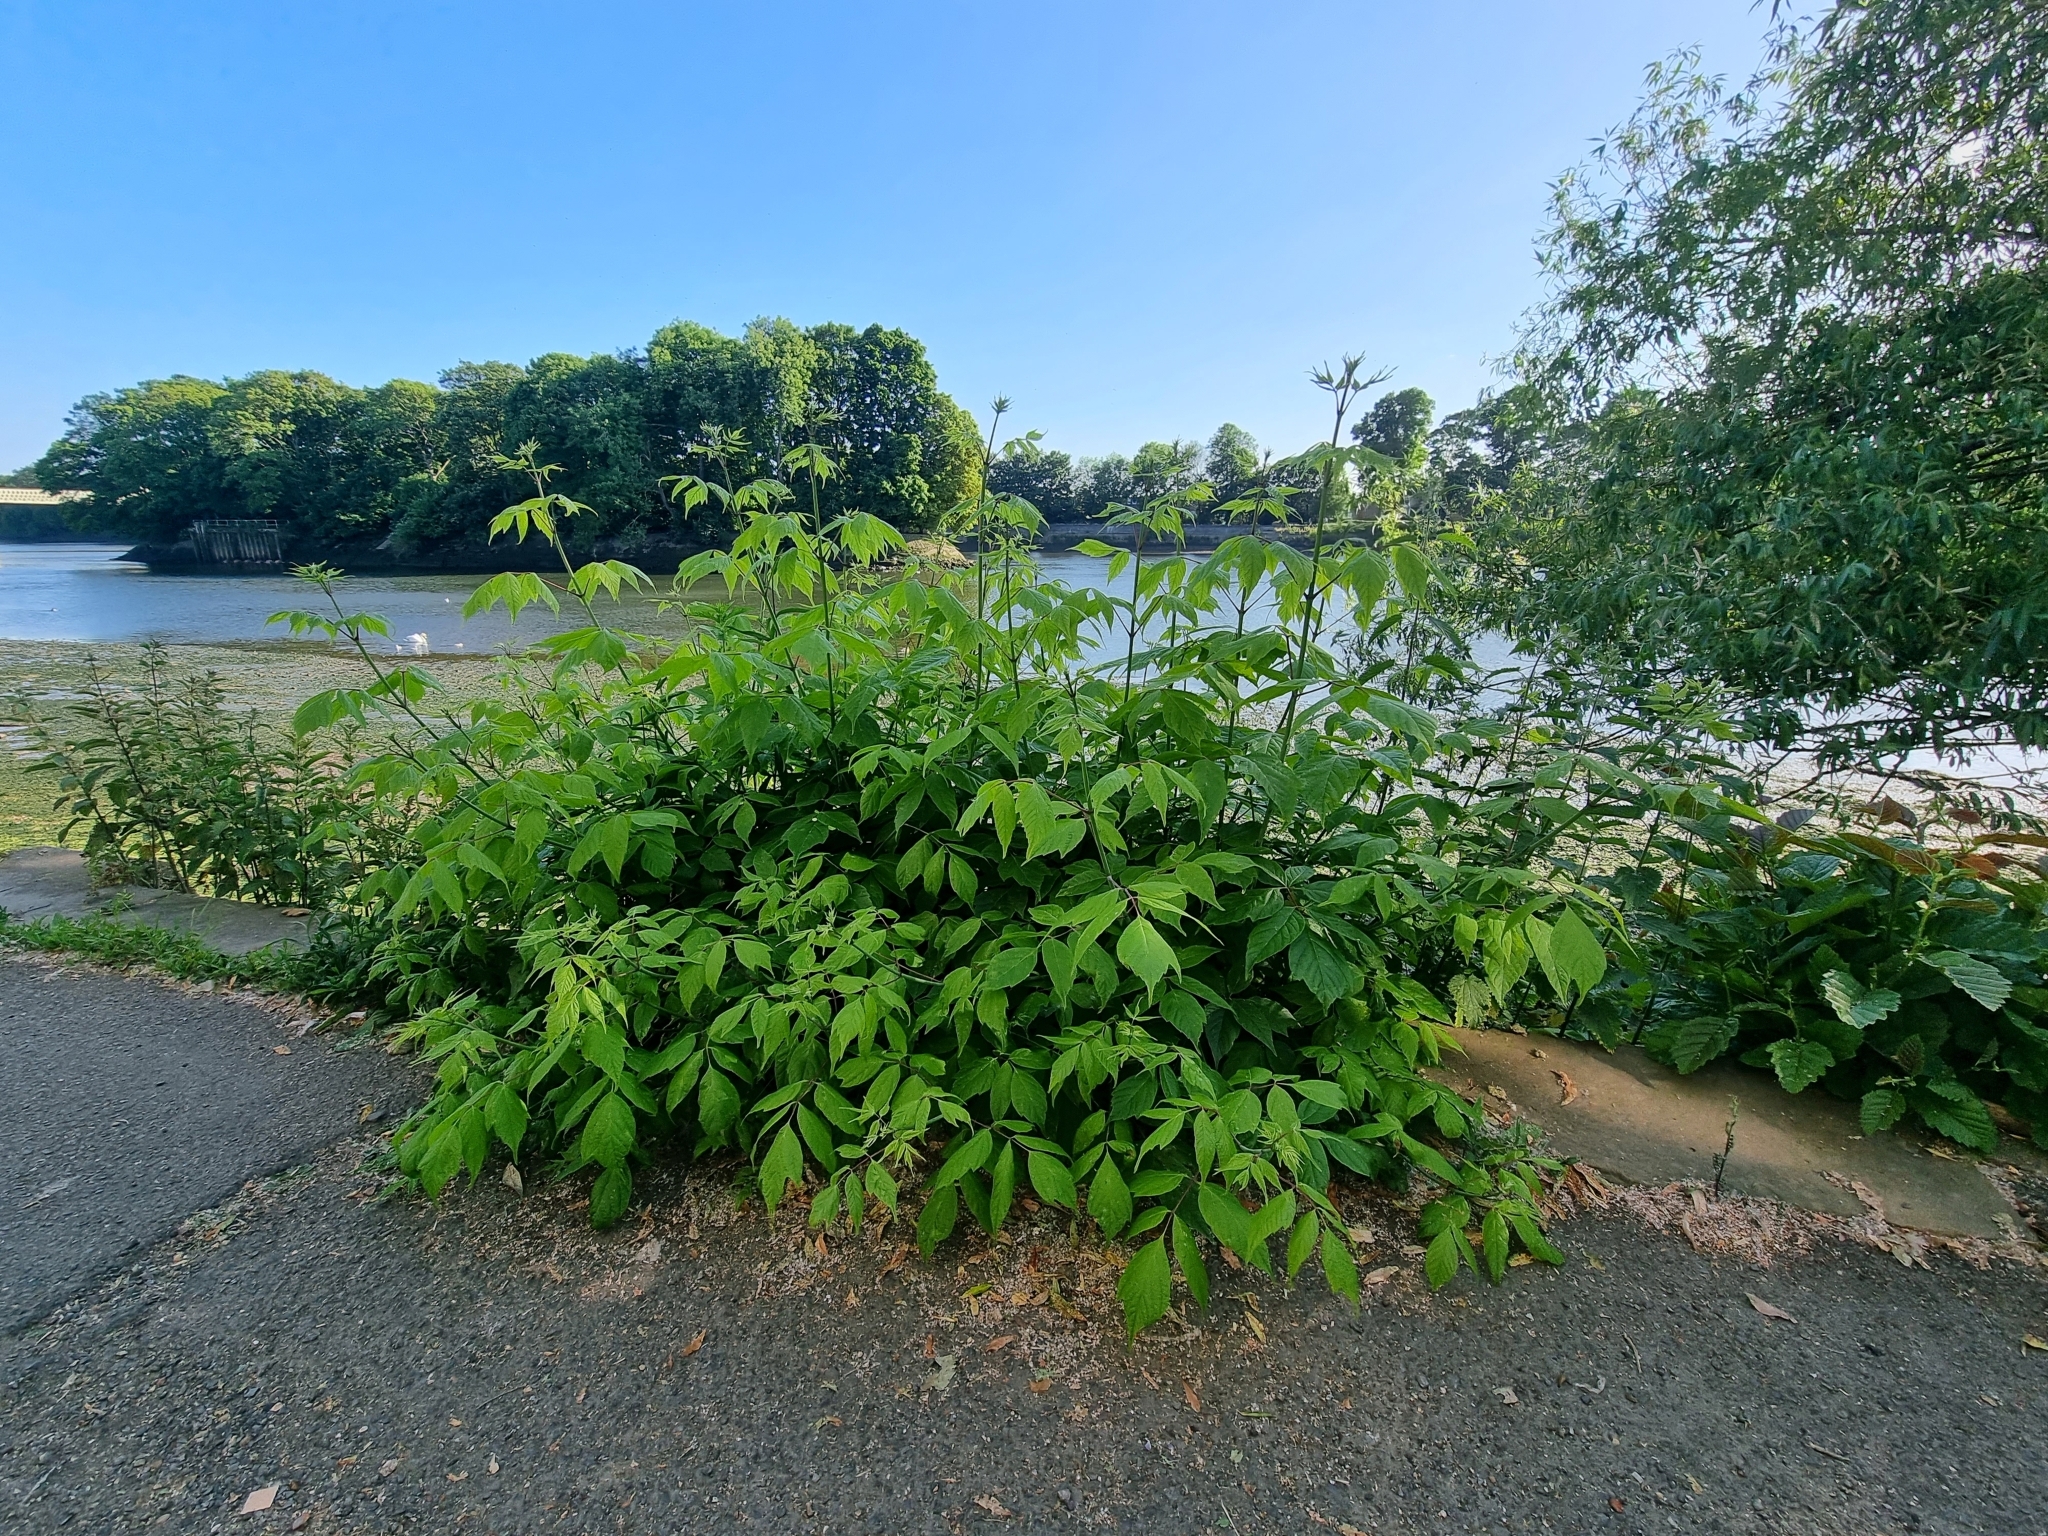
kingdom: Plantae
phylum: Tracheophyta
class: Magnoliopsida
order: Sapindales
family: Sapindaceae
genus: Acer
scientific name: Acer negundo
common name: Ashleaf maple
